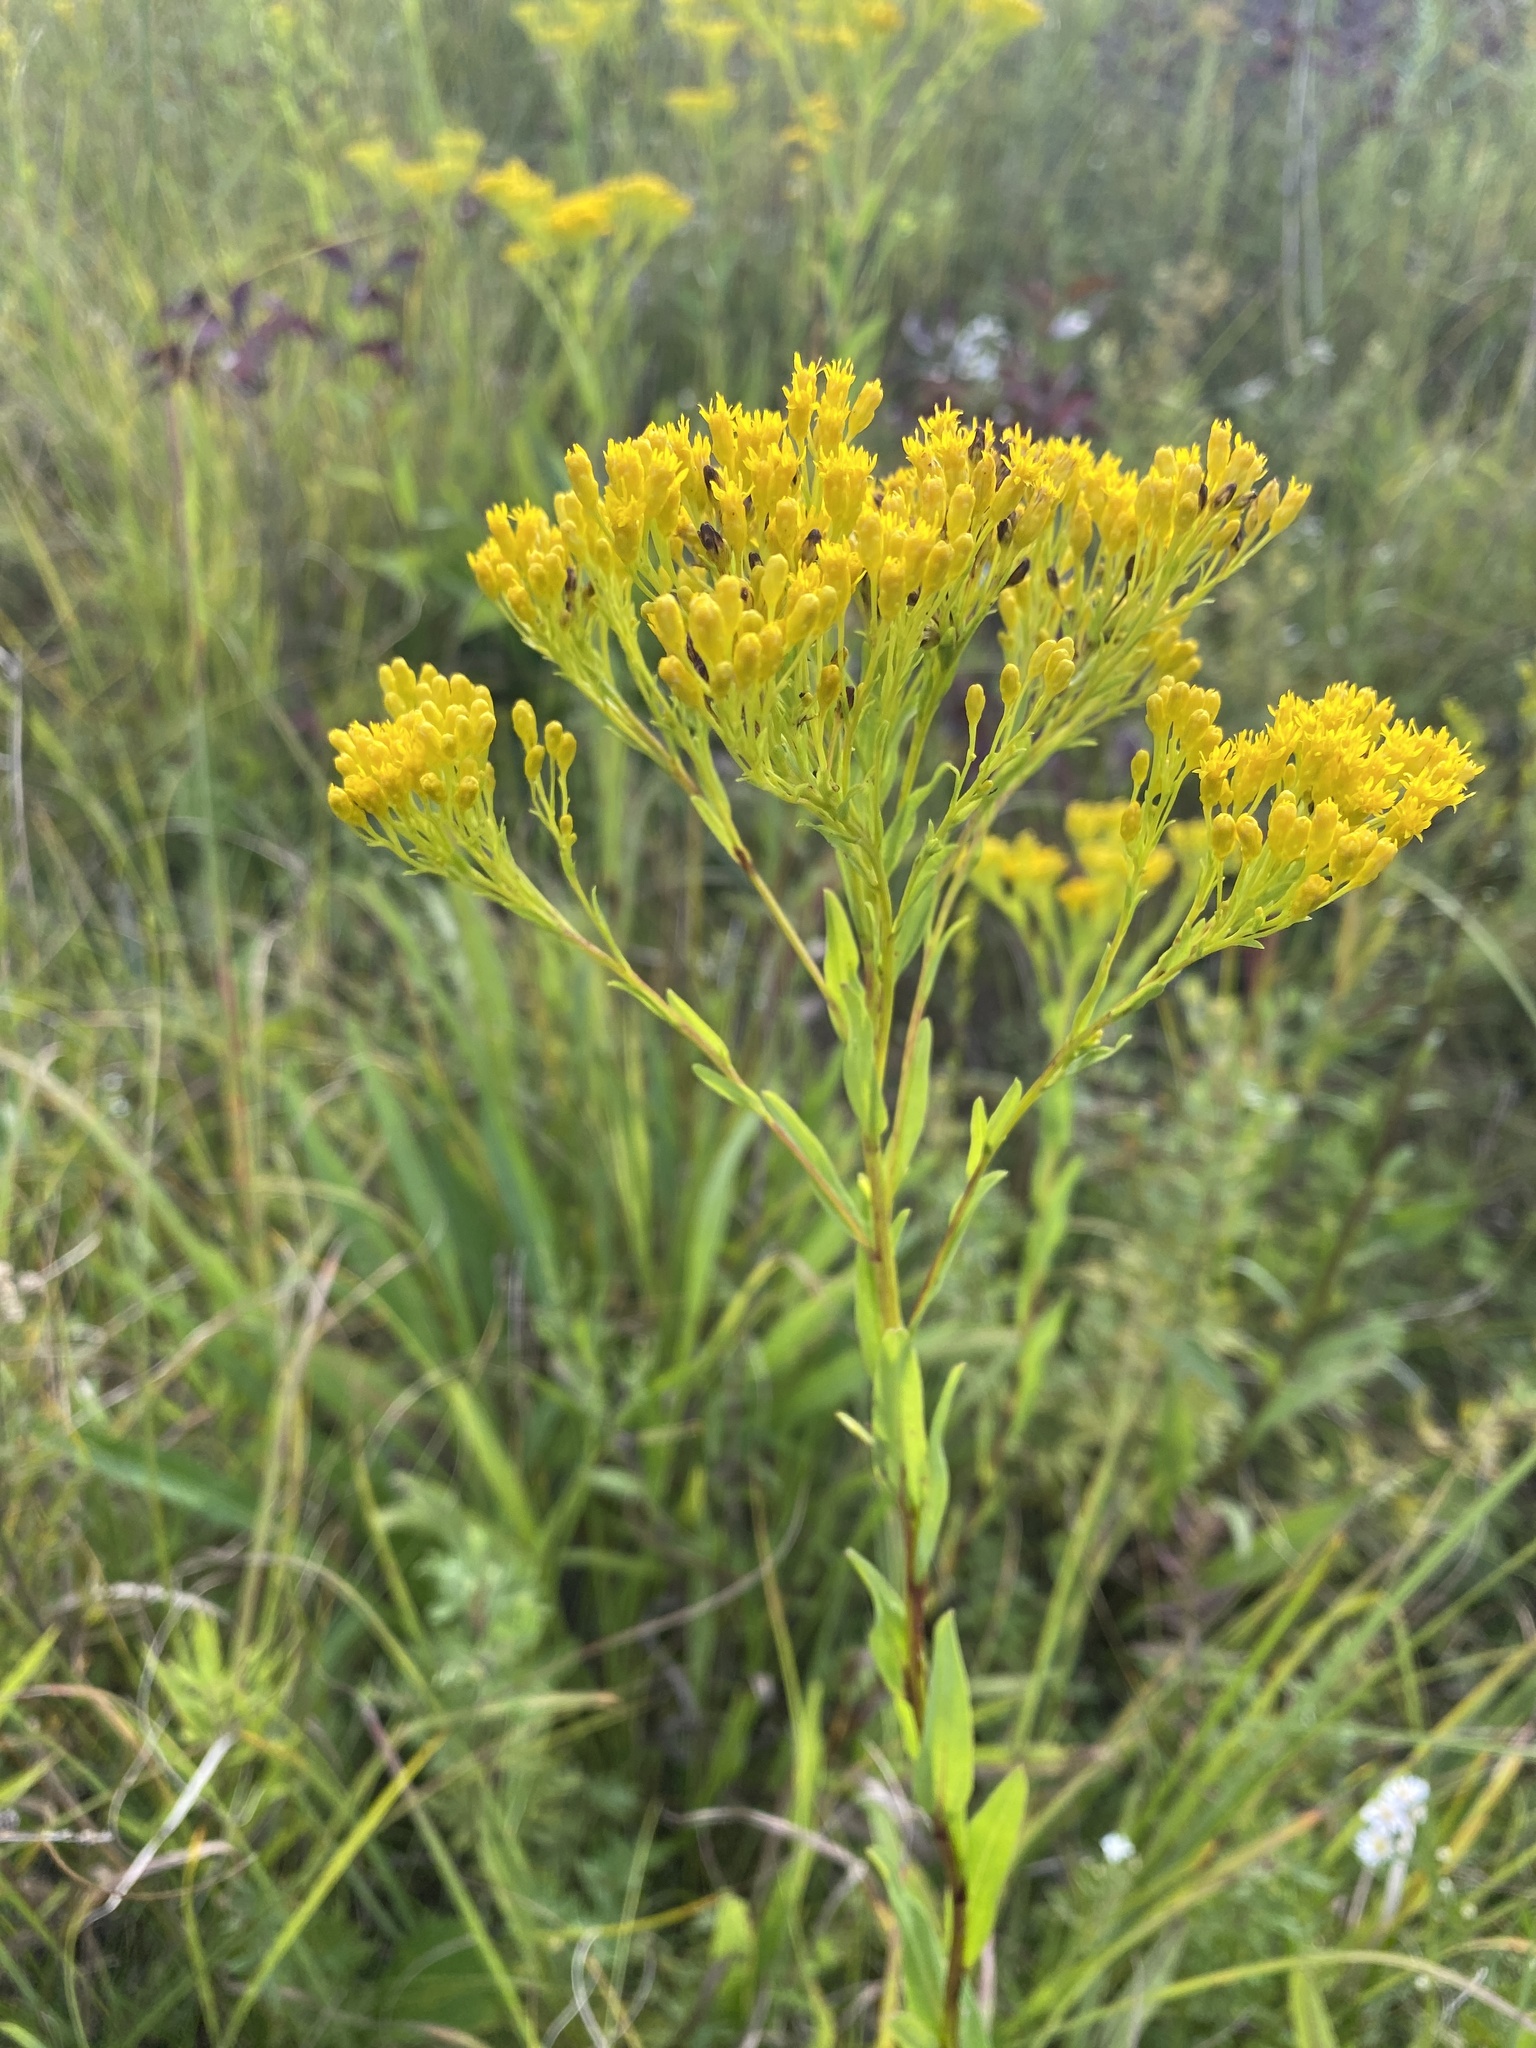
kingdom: Plantae
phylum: Tracheophyta
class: Magnoliopsida
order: Asterales
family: Asteraceae
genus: Solidago
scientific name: Solidago ohioensis
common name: Ohio goldenrod
